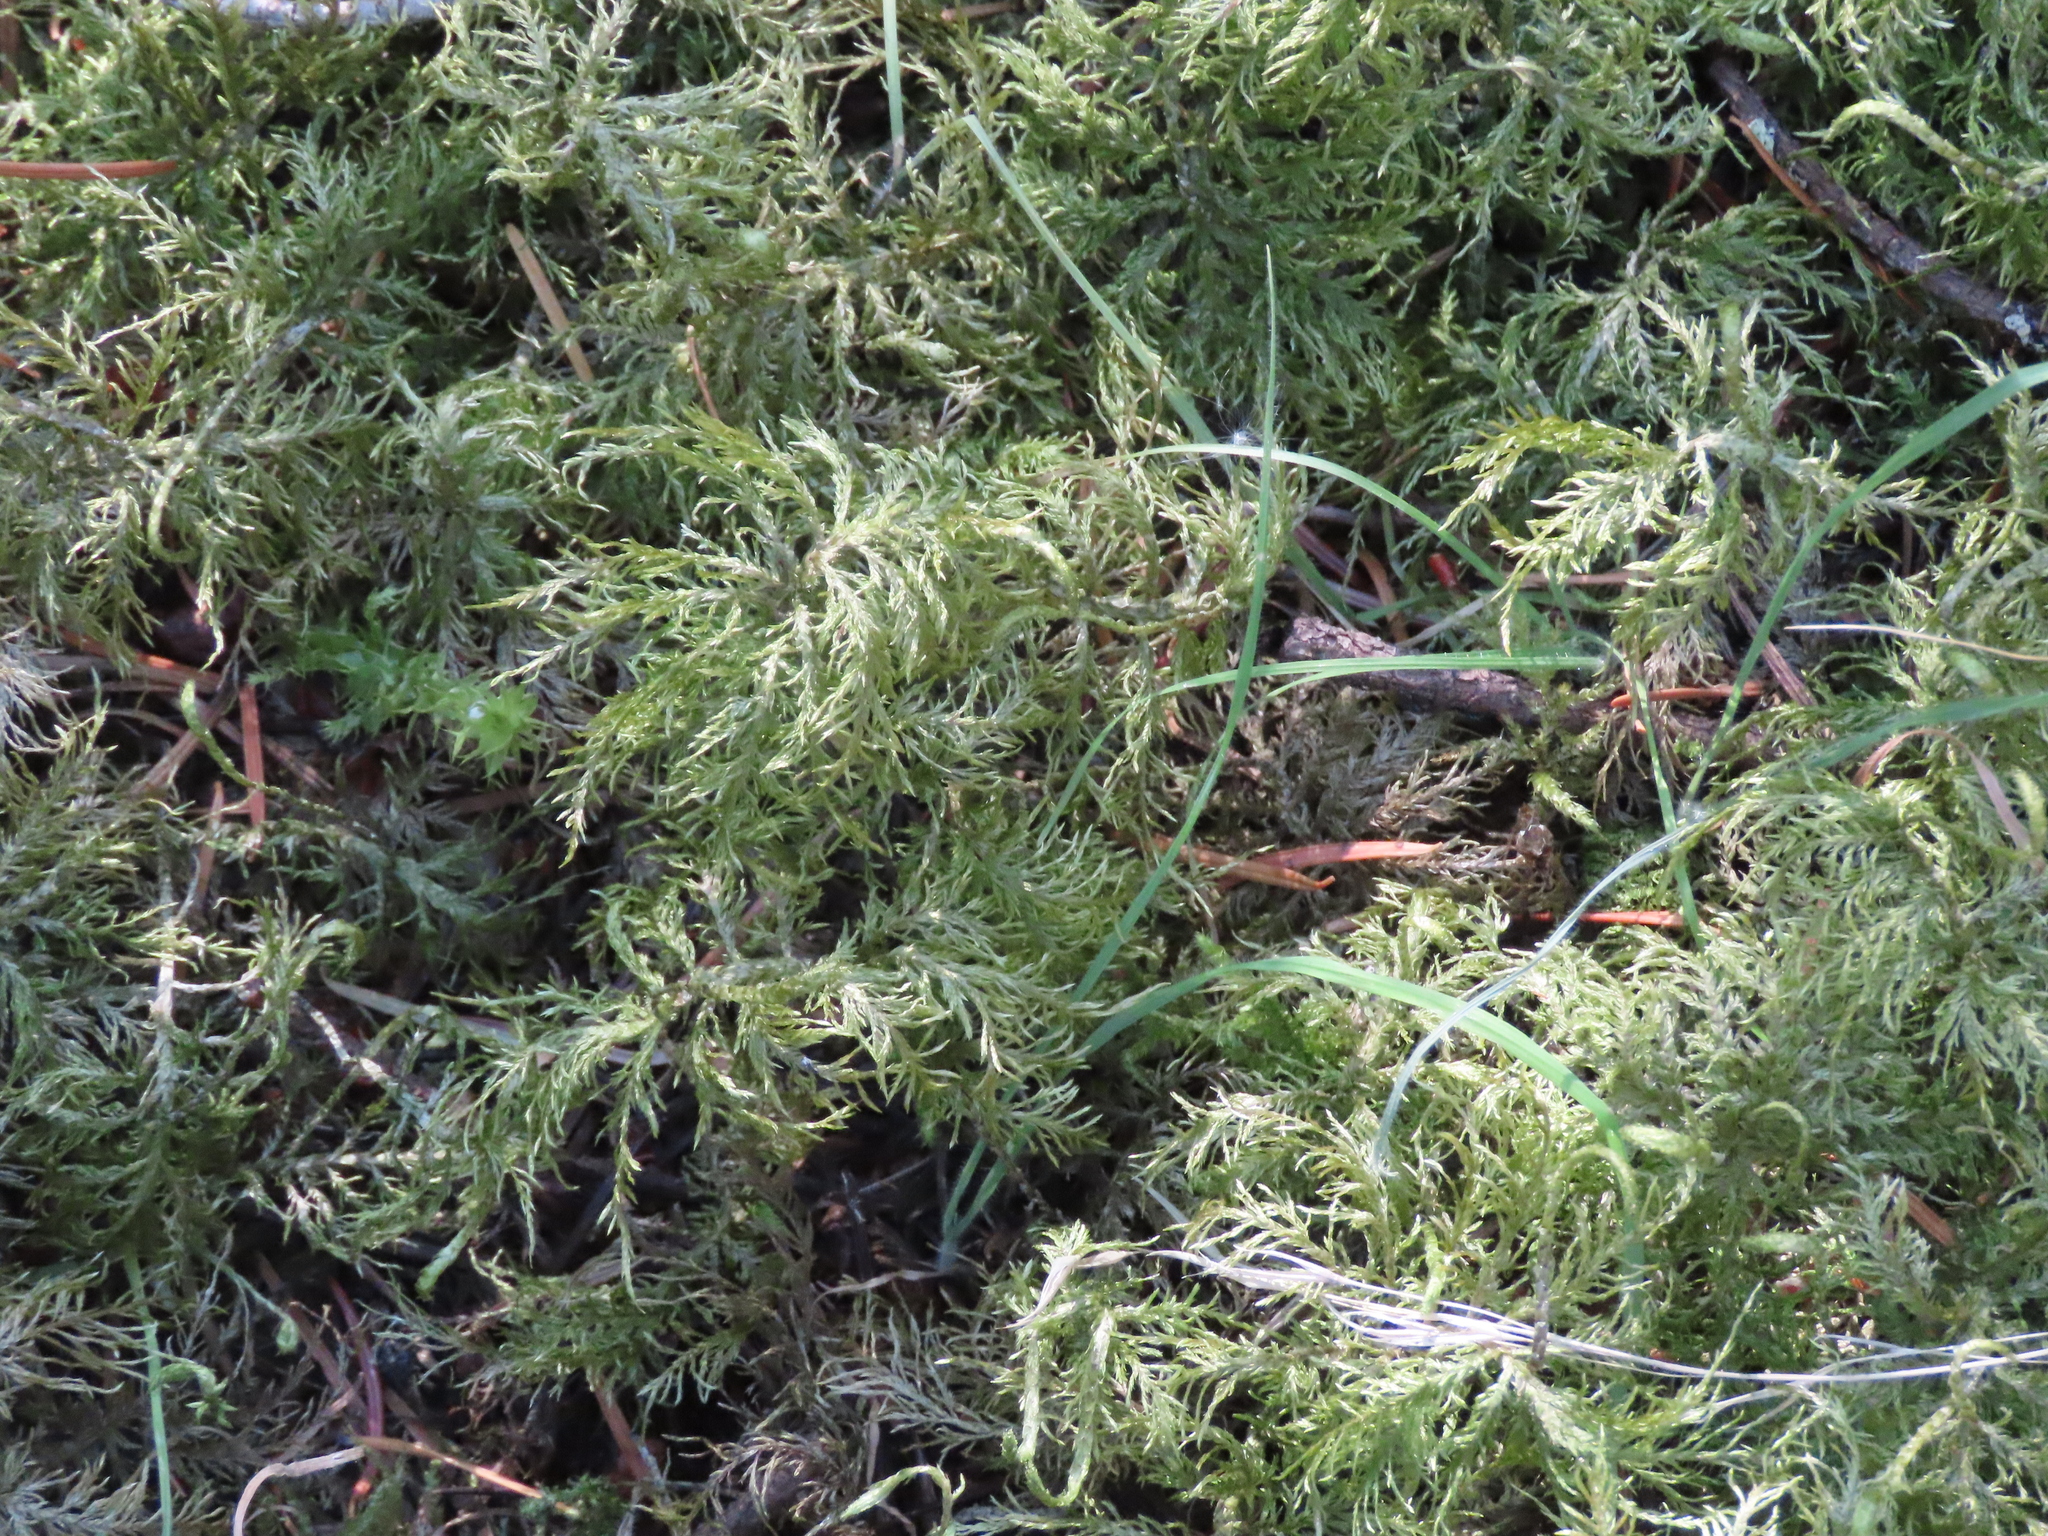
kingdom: Plantae
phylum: Bryophyta
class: Bryopsida
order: Hypnales
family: Hylocomiaceae
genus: Hylocomium
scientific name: Hylocomium splendens
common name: Stairstep moss
